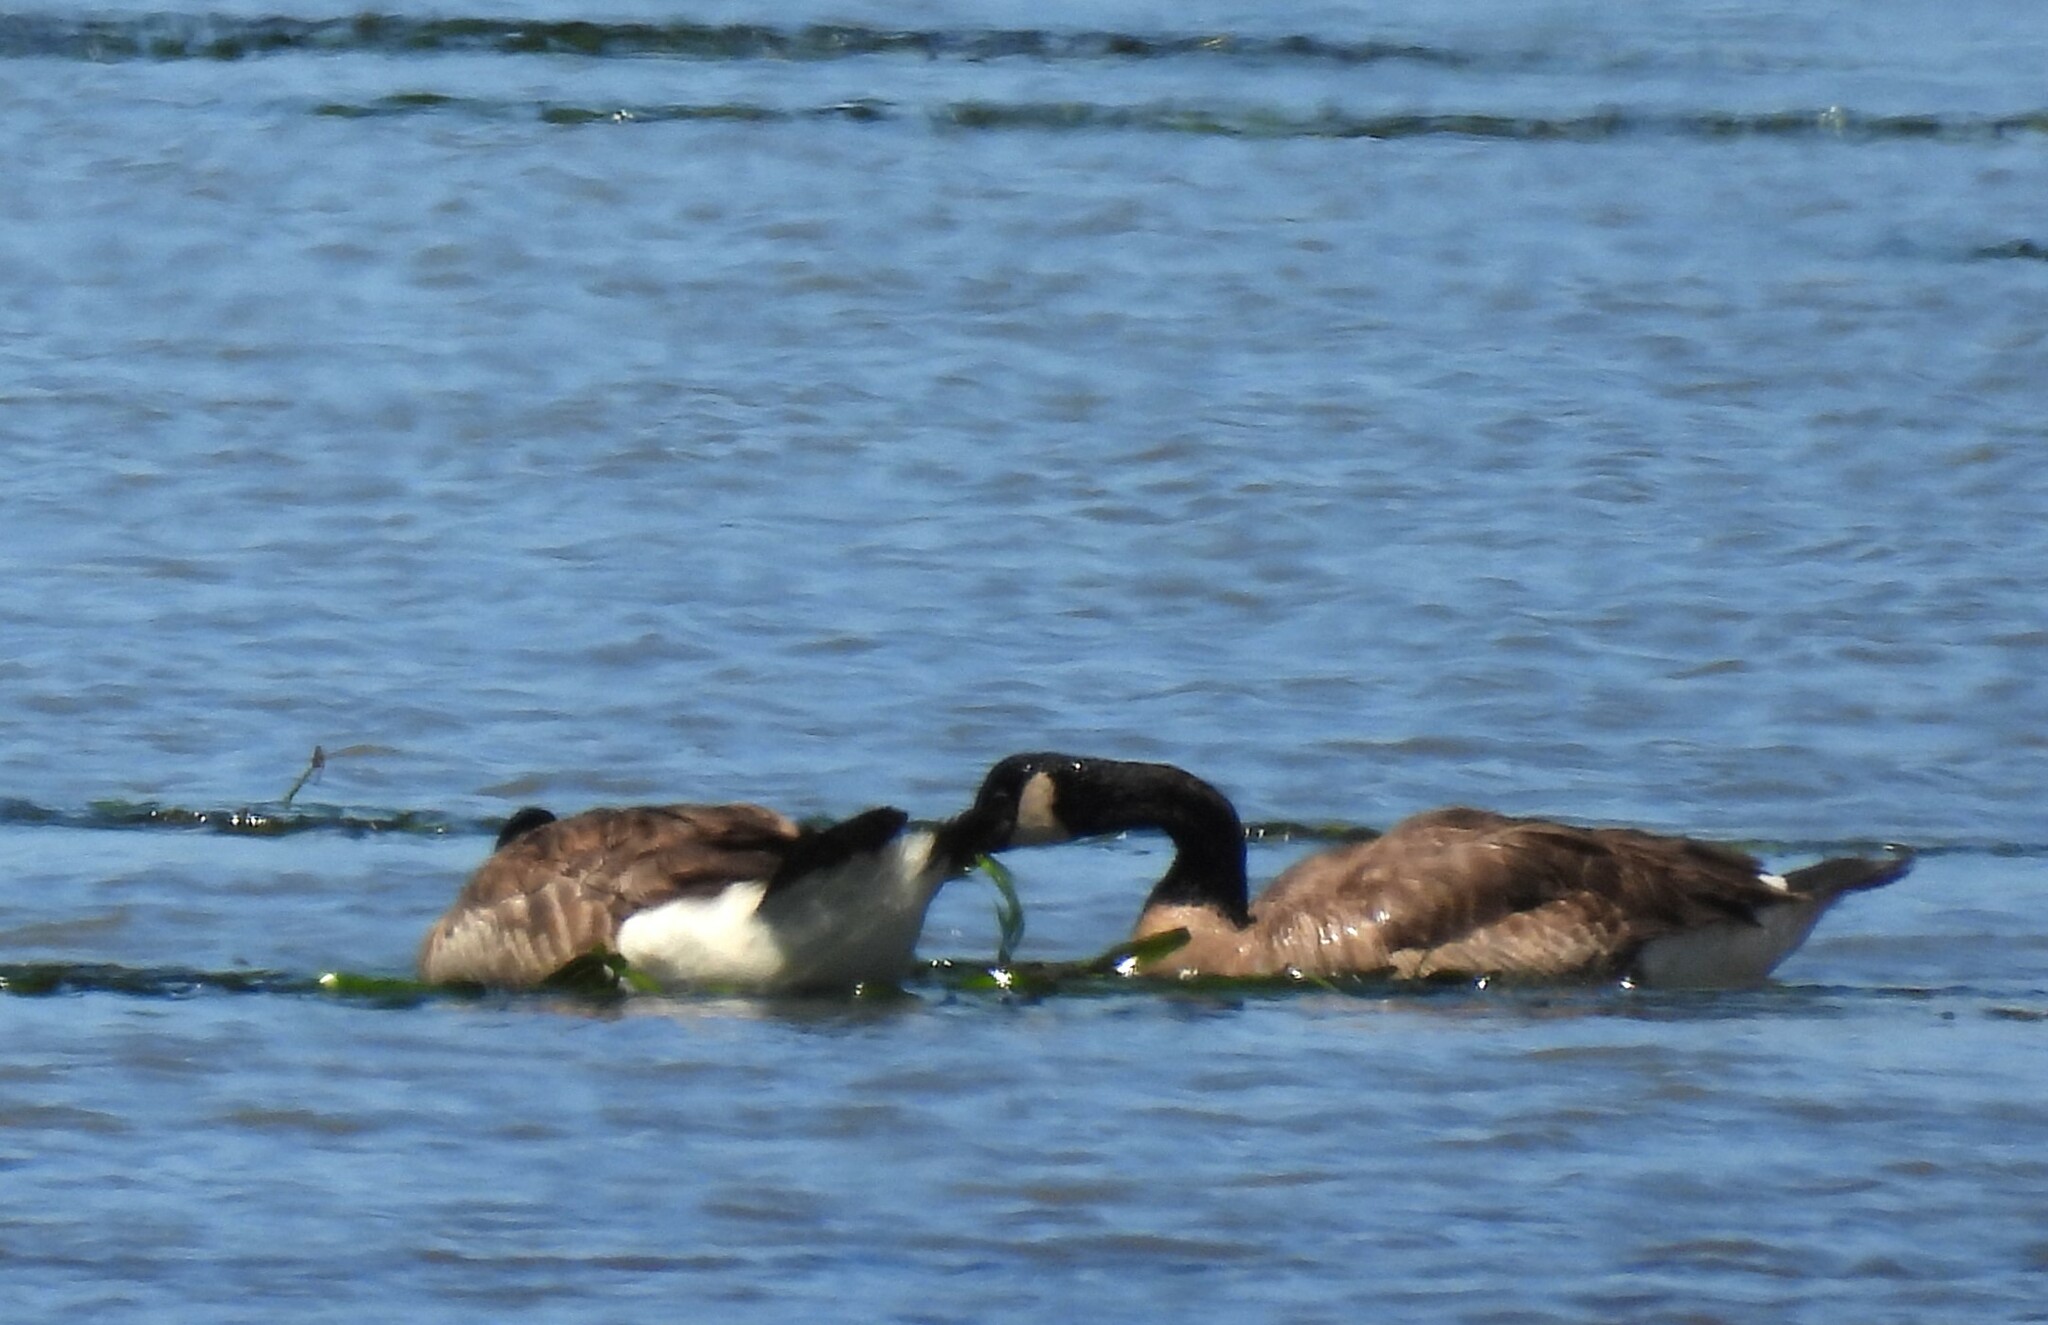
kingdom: Animalia
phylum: Chordata
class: Aves
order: Anseriformes
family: Anatidae
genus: Branta
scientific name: Branta canadensis
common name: Canada goose
